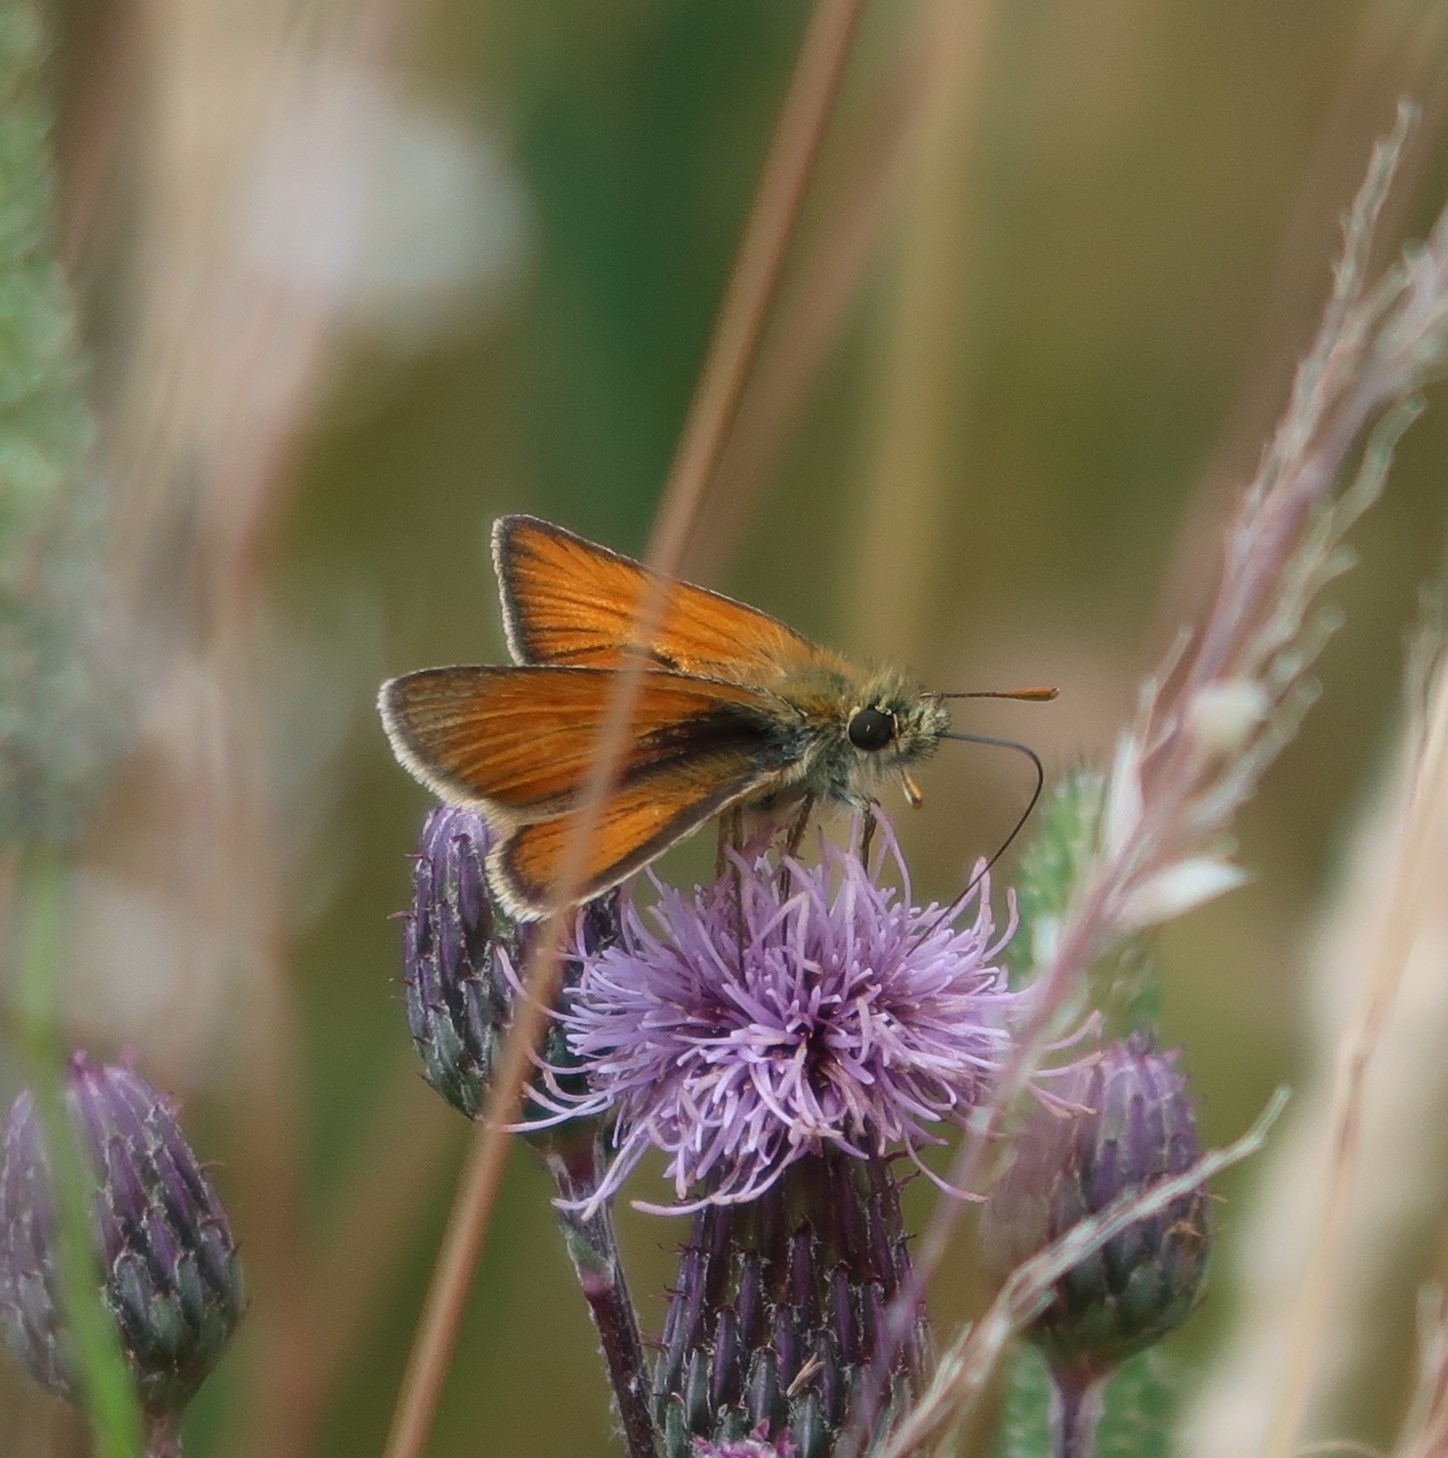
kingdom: Animalia
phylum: Arthropoda
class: Insecta
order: Lepidoptera
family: Hesperiidae
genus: Thymelicus
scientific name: Thymelicus sylvestris
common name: Small skipper
